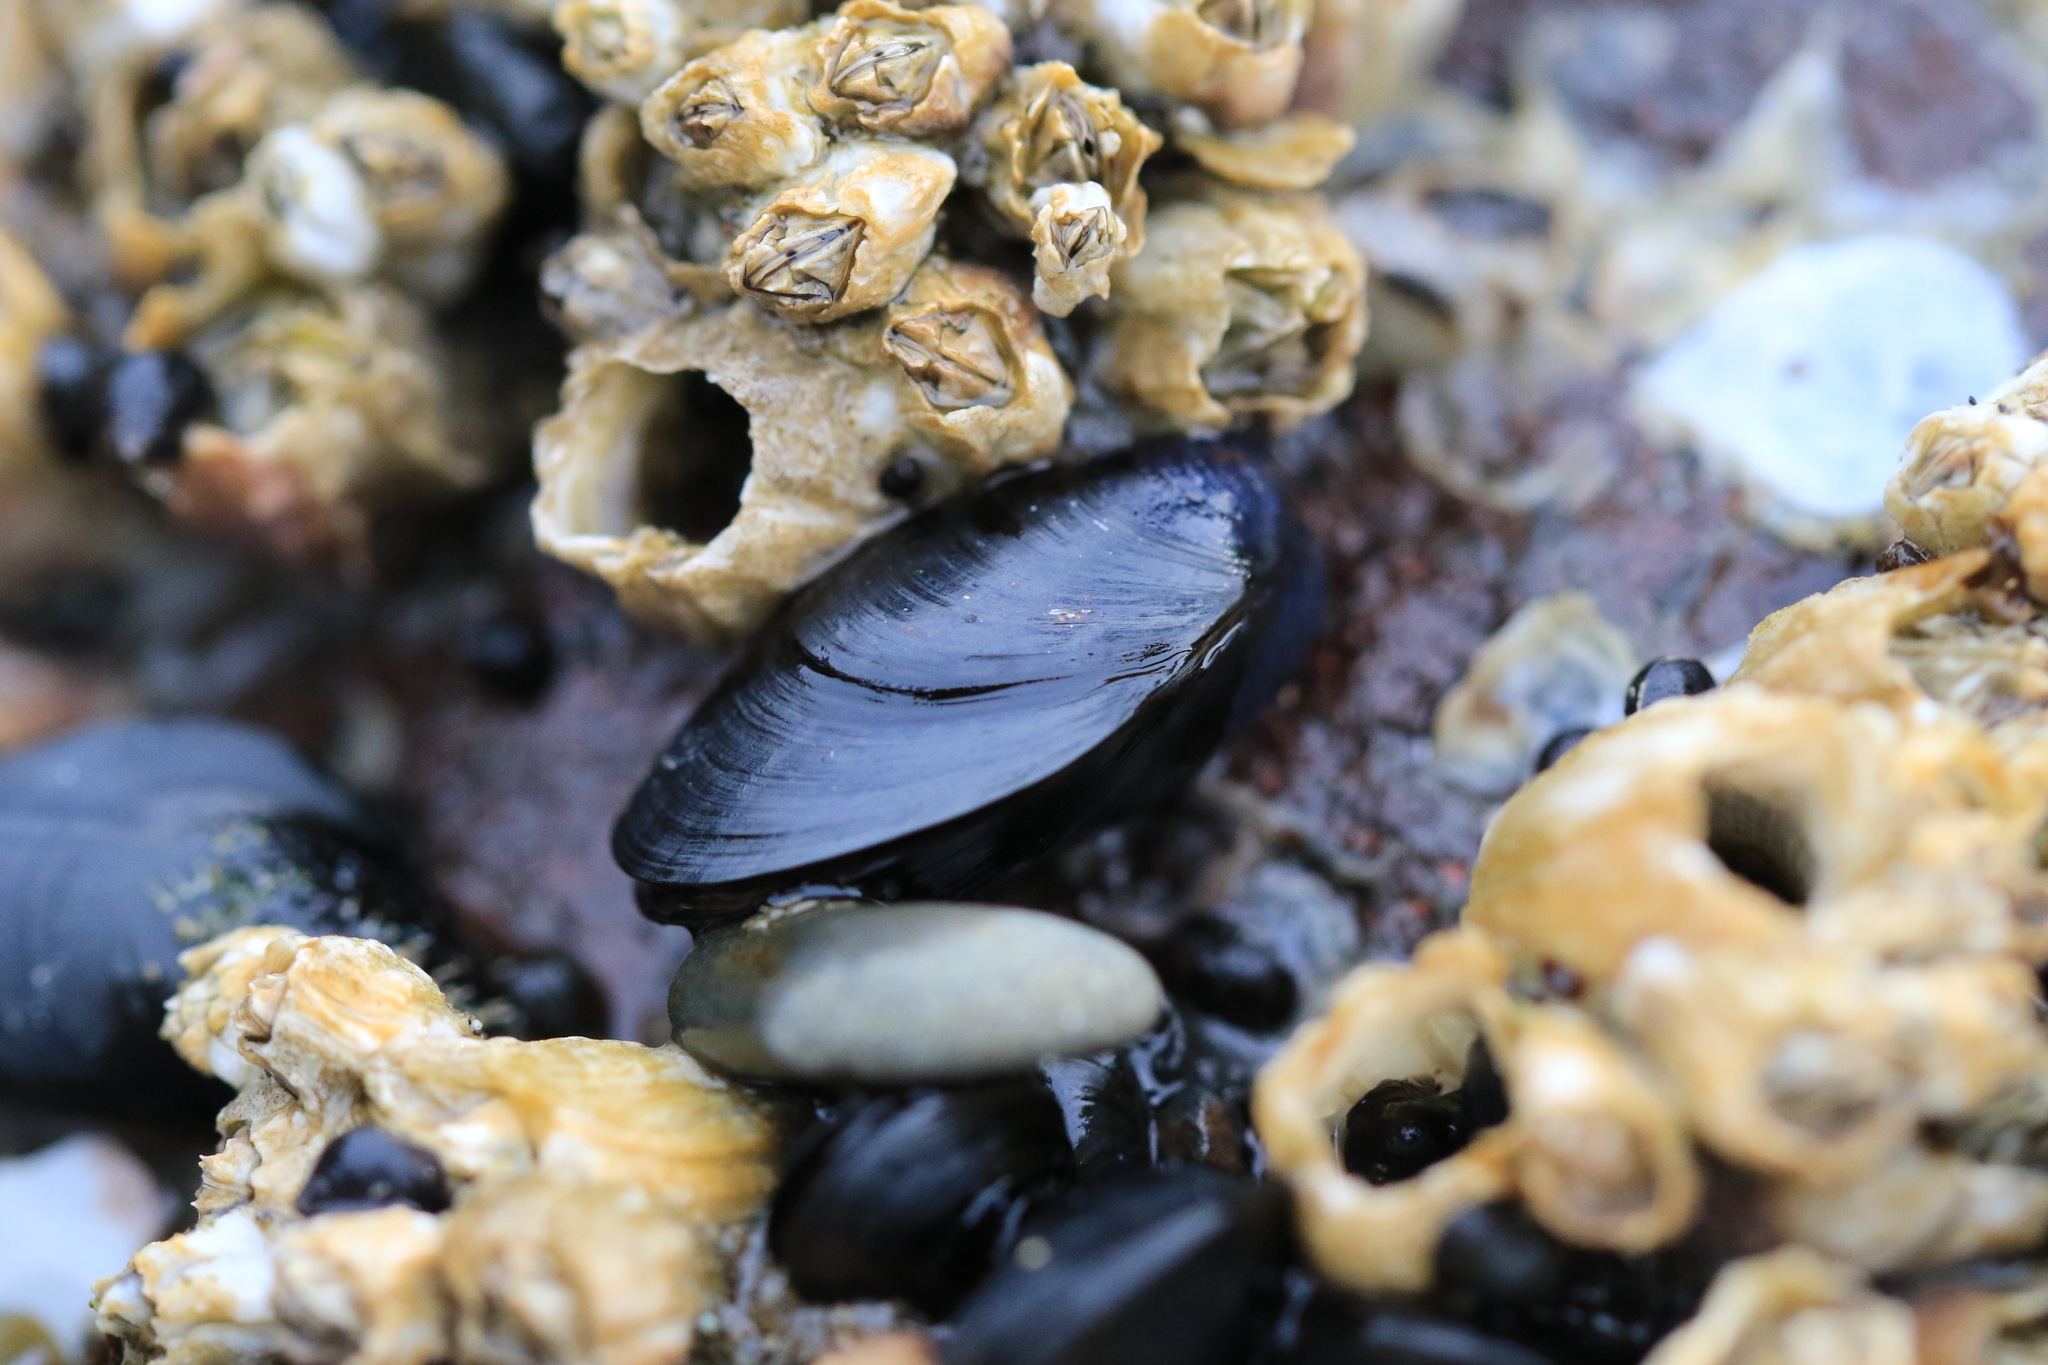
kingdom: Animalia
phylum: Mollusca
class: Bivalvia
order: Mytilida
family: Mytilidae
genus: Mytilus
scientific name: Mytilus trossulus
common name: Northern blue mussel
